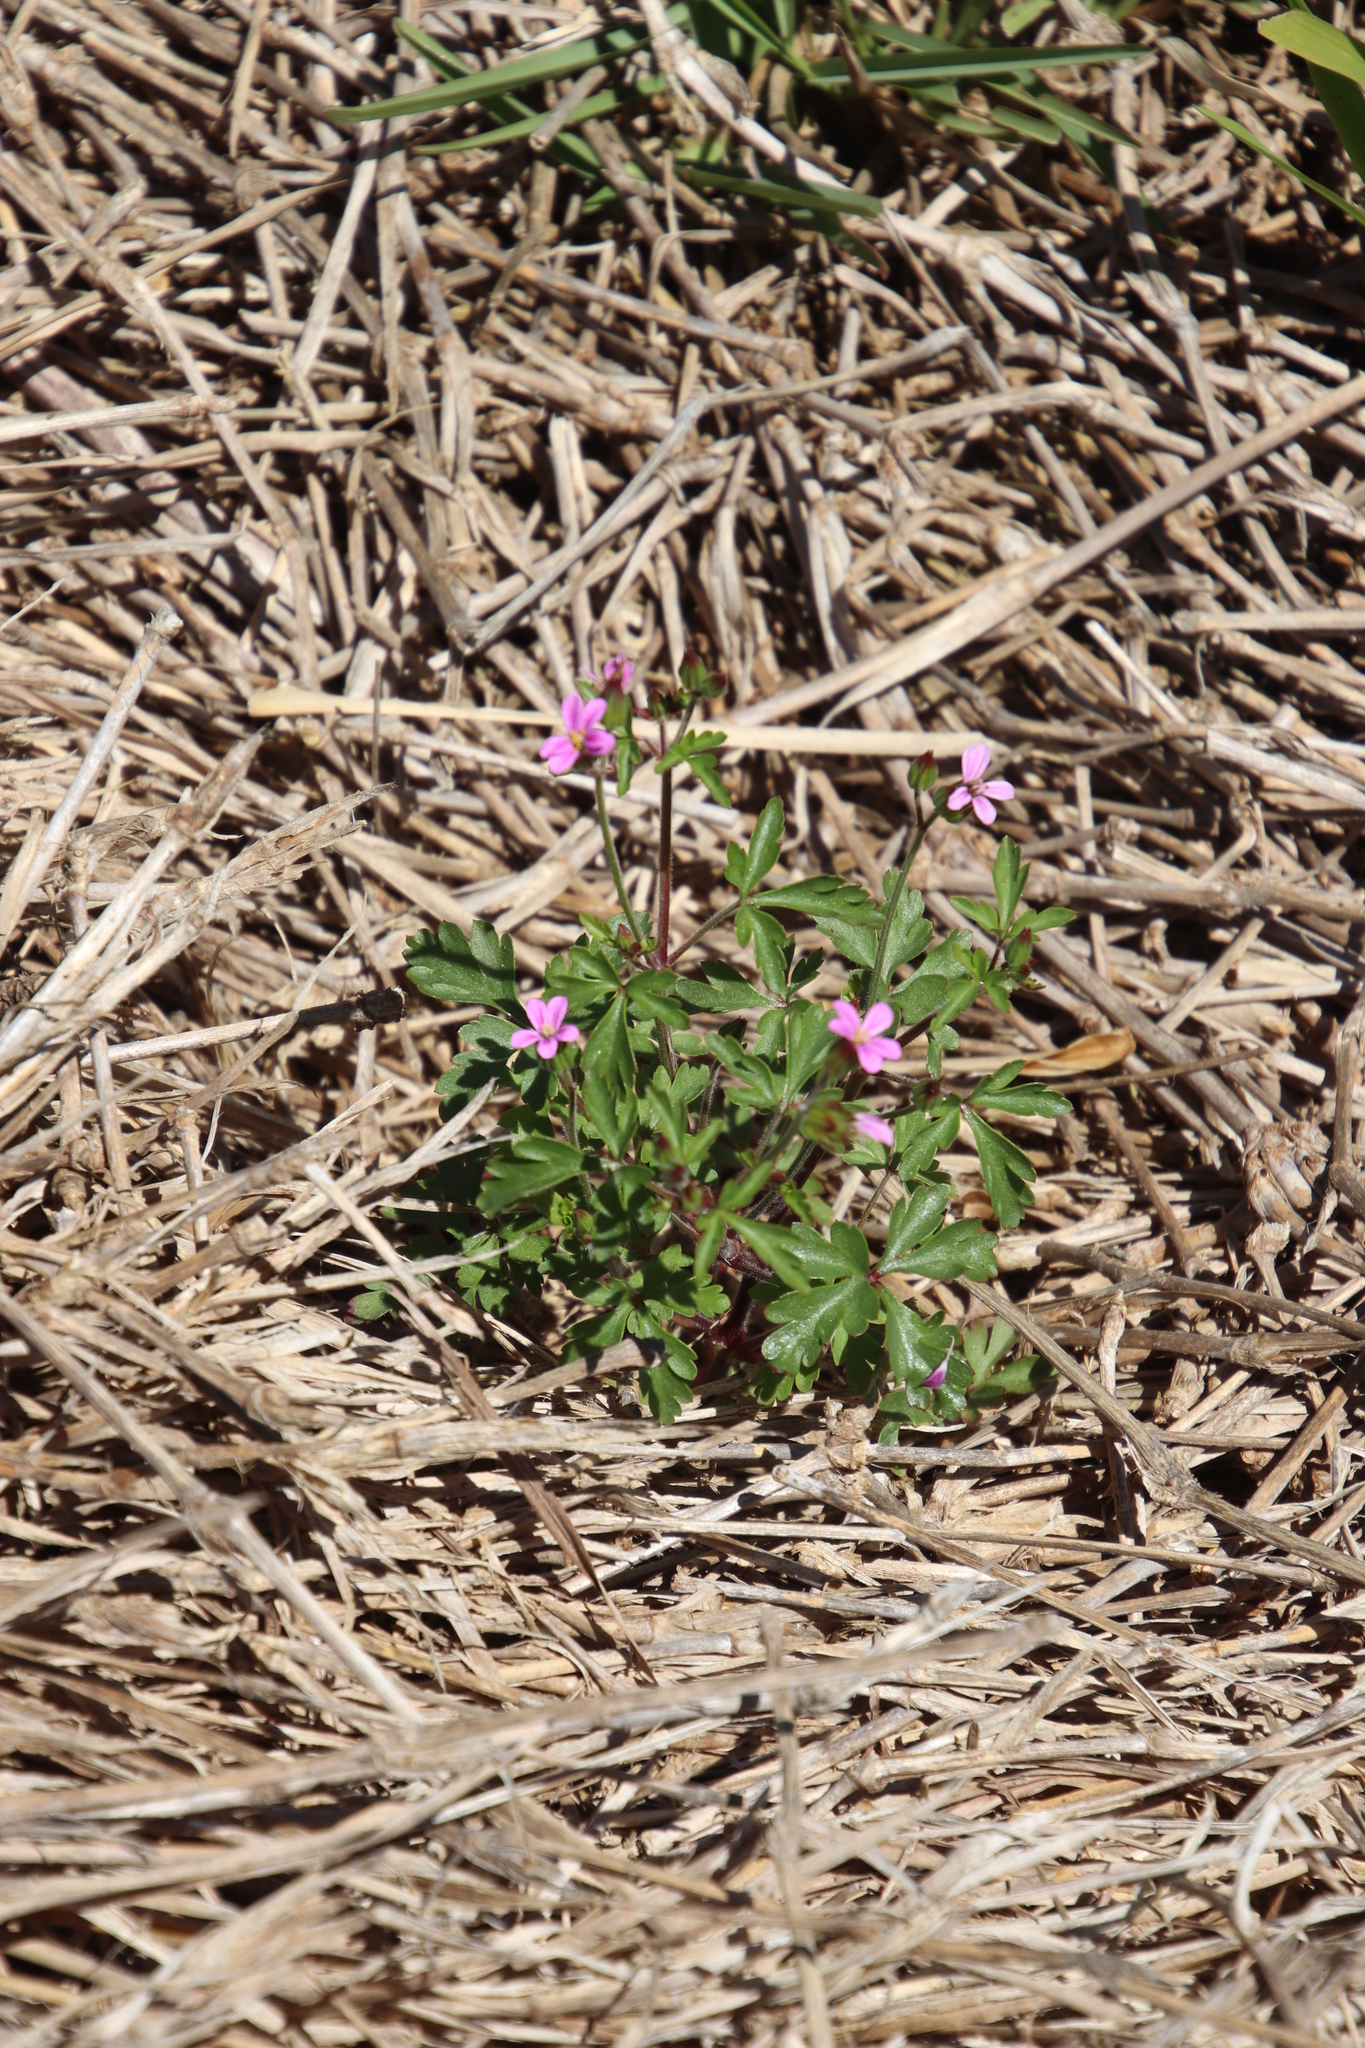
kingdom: Plantae
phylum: Tracheophyta
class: Magnoliopsida
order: Geraniales
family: Geraniaceae
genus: Geranium
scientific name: Geranium purpureum
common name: Little-robin
